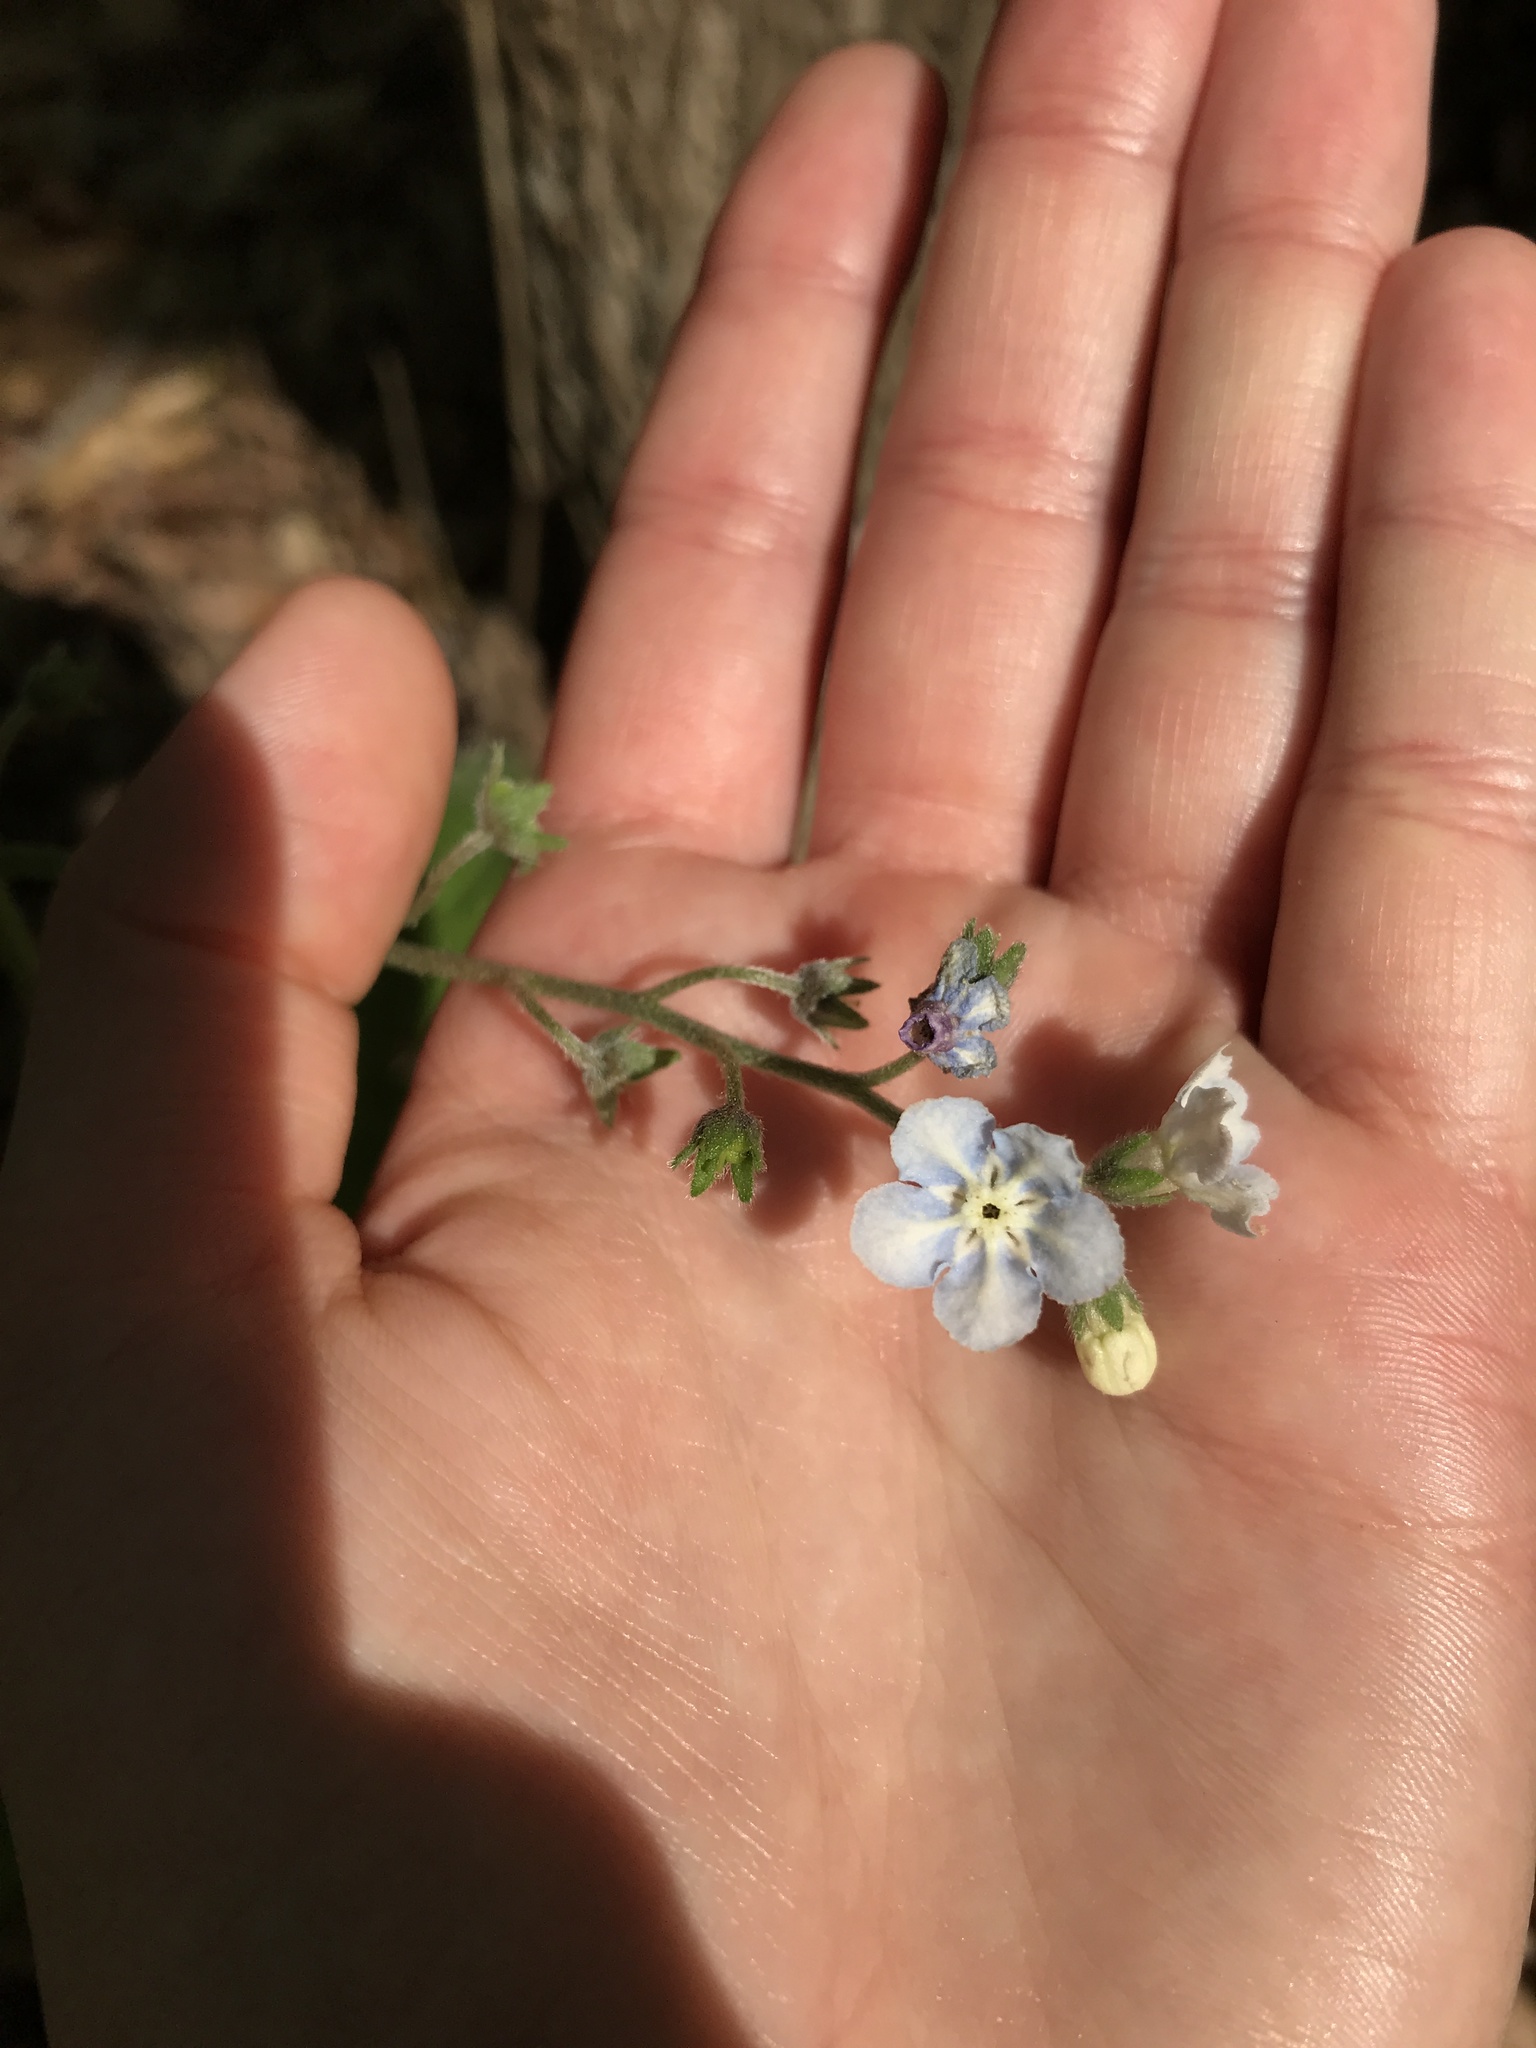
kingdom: Plantae
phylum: Tracheophyta
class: Magnoliopsida
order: Boraginales
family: Boraginaceae
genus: Andersonglossum
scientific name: Andersonglossum virginianum
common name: Wild comfrey
